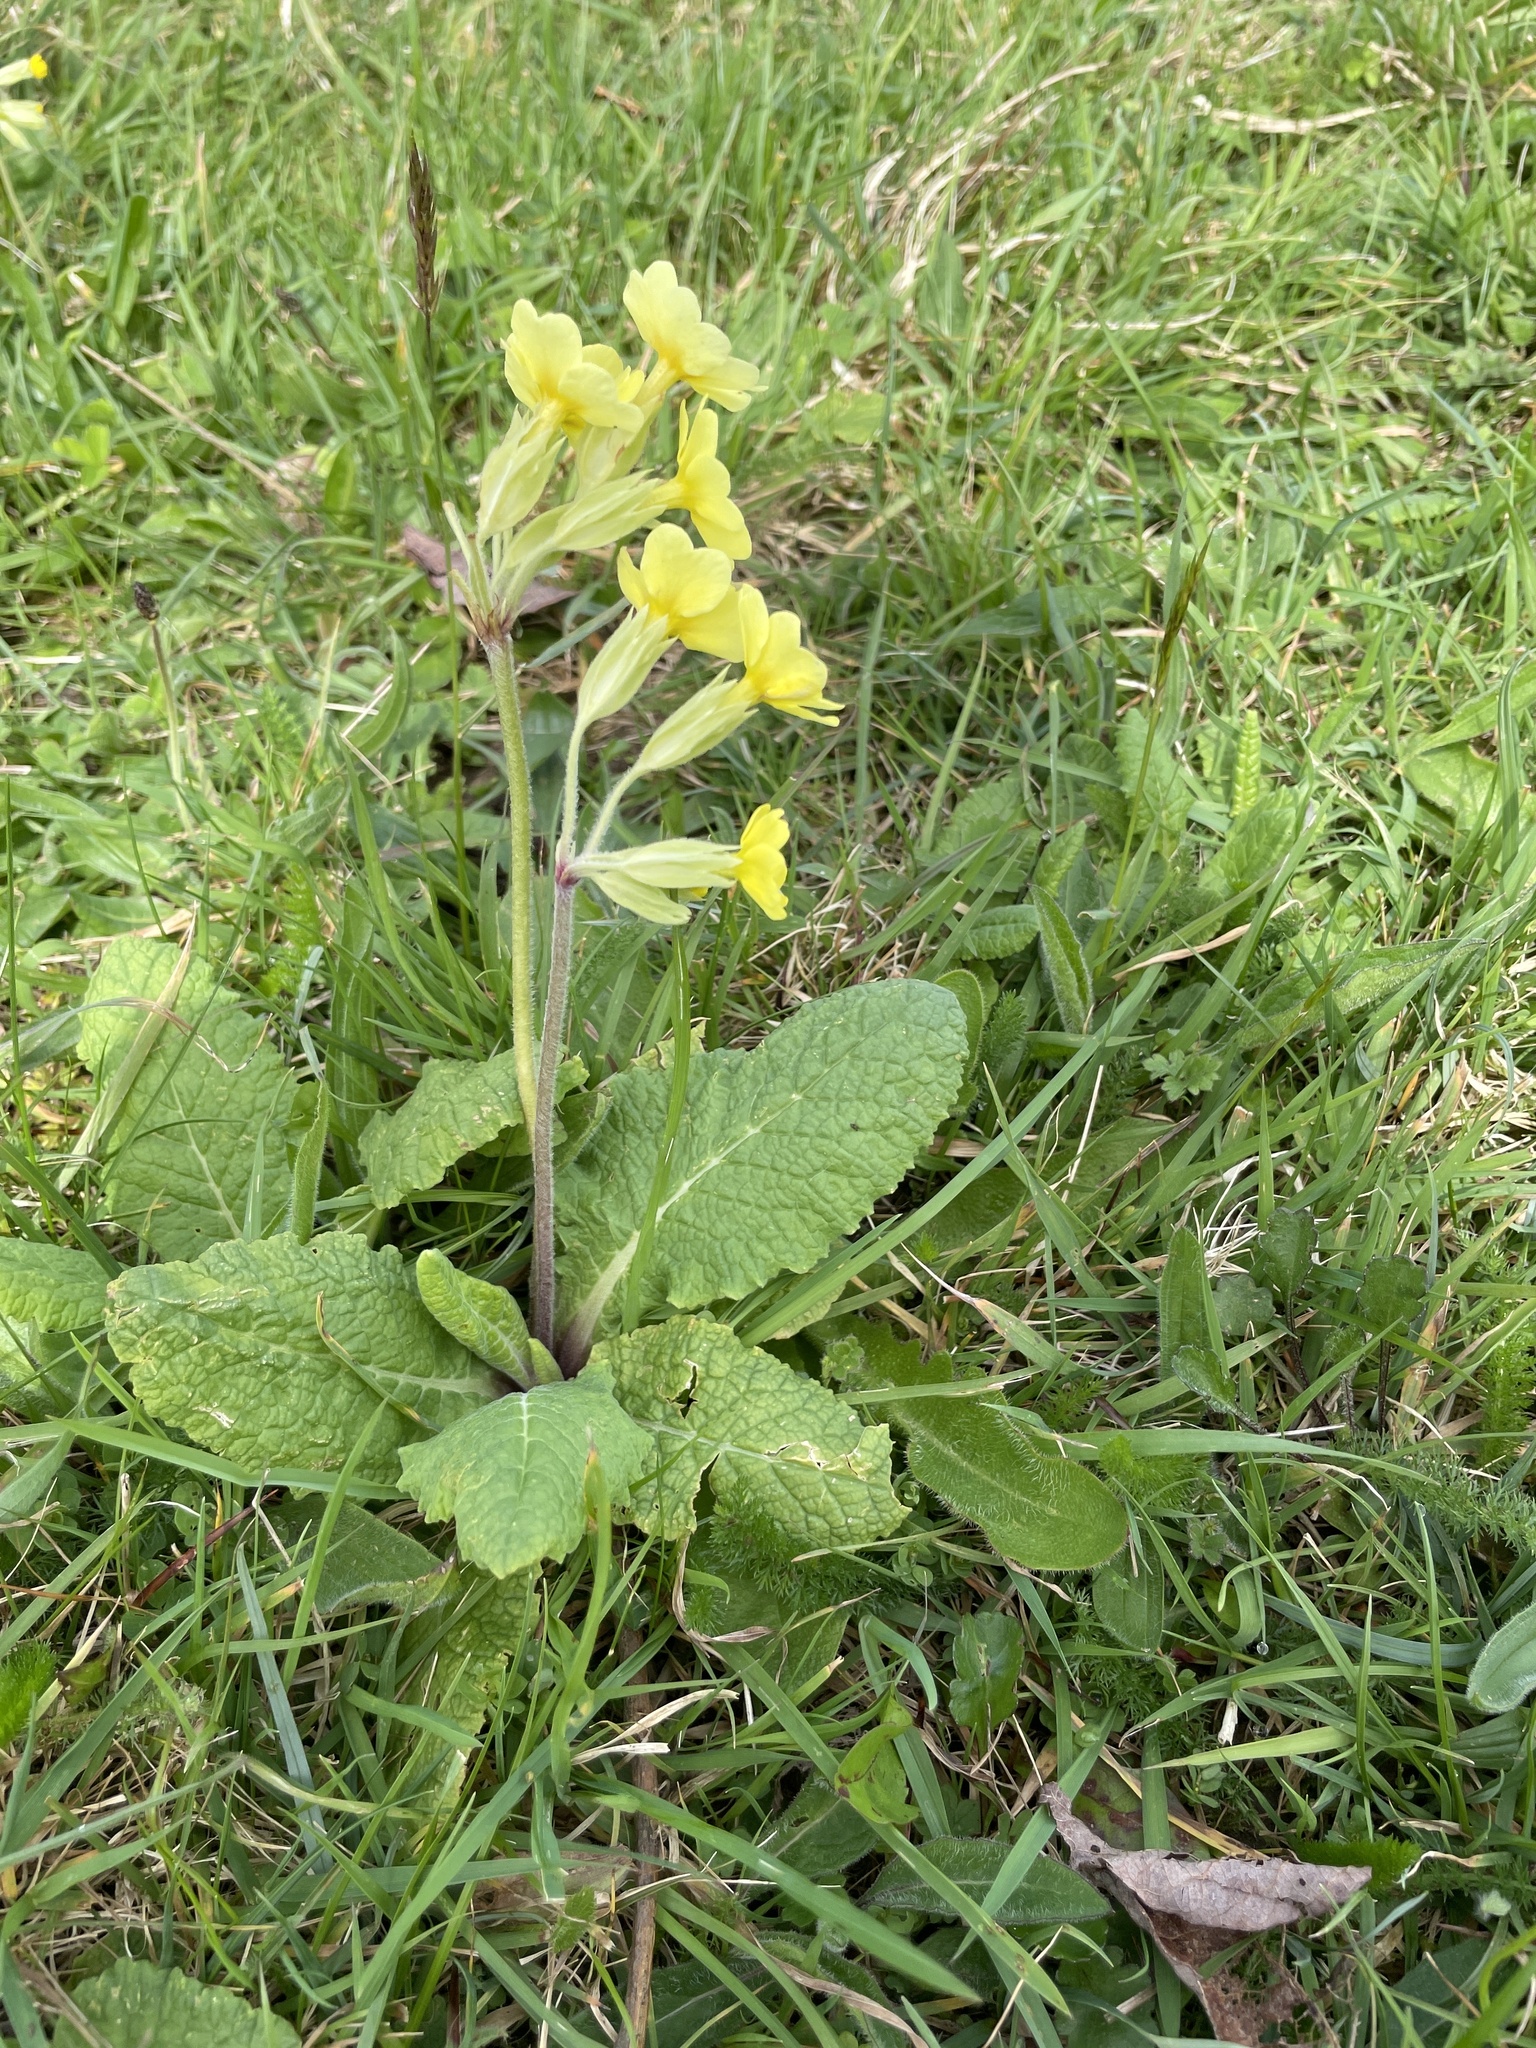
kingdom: Plantae
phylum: Tracheophyta
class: Magnoliopsida
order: Ericales
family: Primulaceae
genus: Primula
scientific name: Primula polyantha
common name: False oxlip
